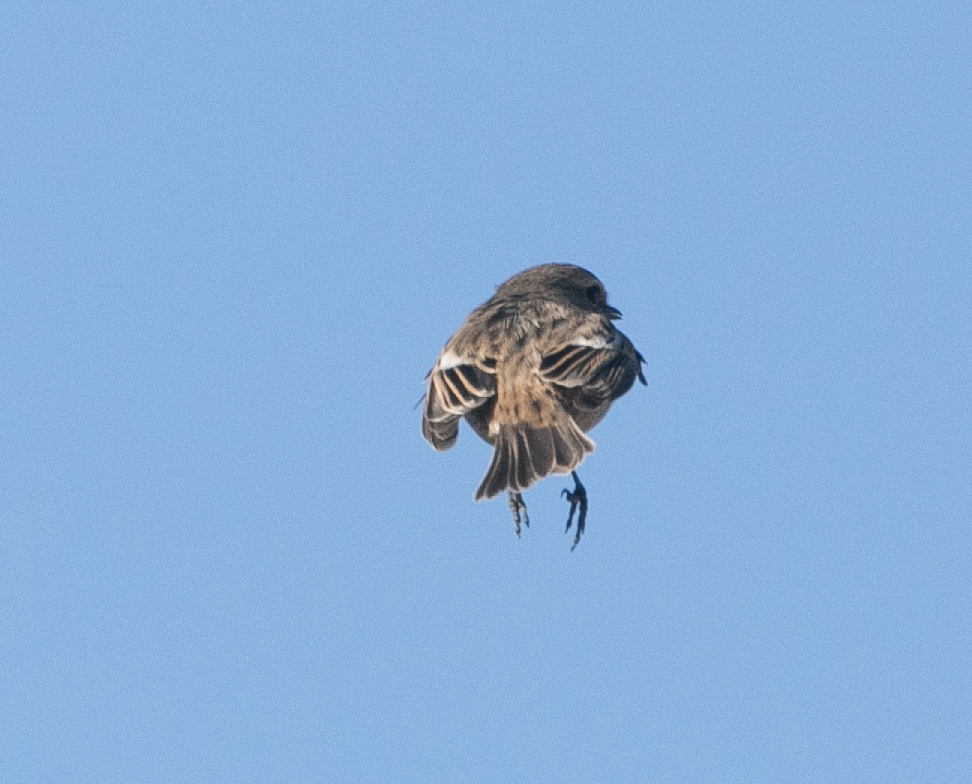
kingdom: Animalia
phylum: Chordata
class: Aves
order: Passeriformes
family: Muscicapidae
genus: Saxicola
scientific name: Saxicola rubicola
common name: European stonechat
